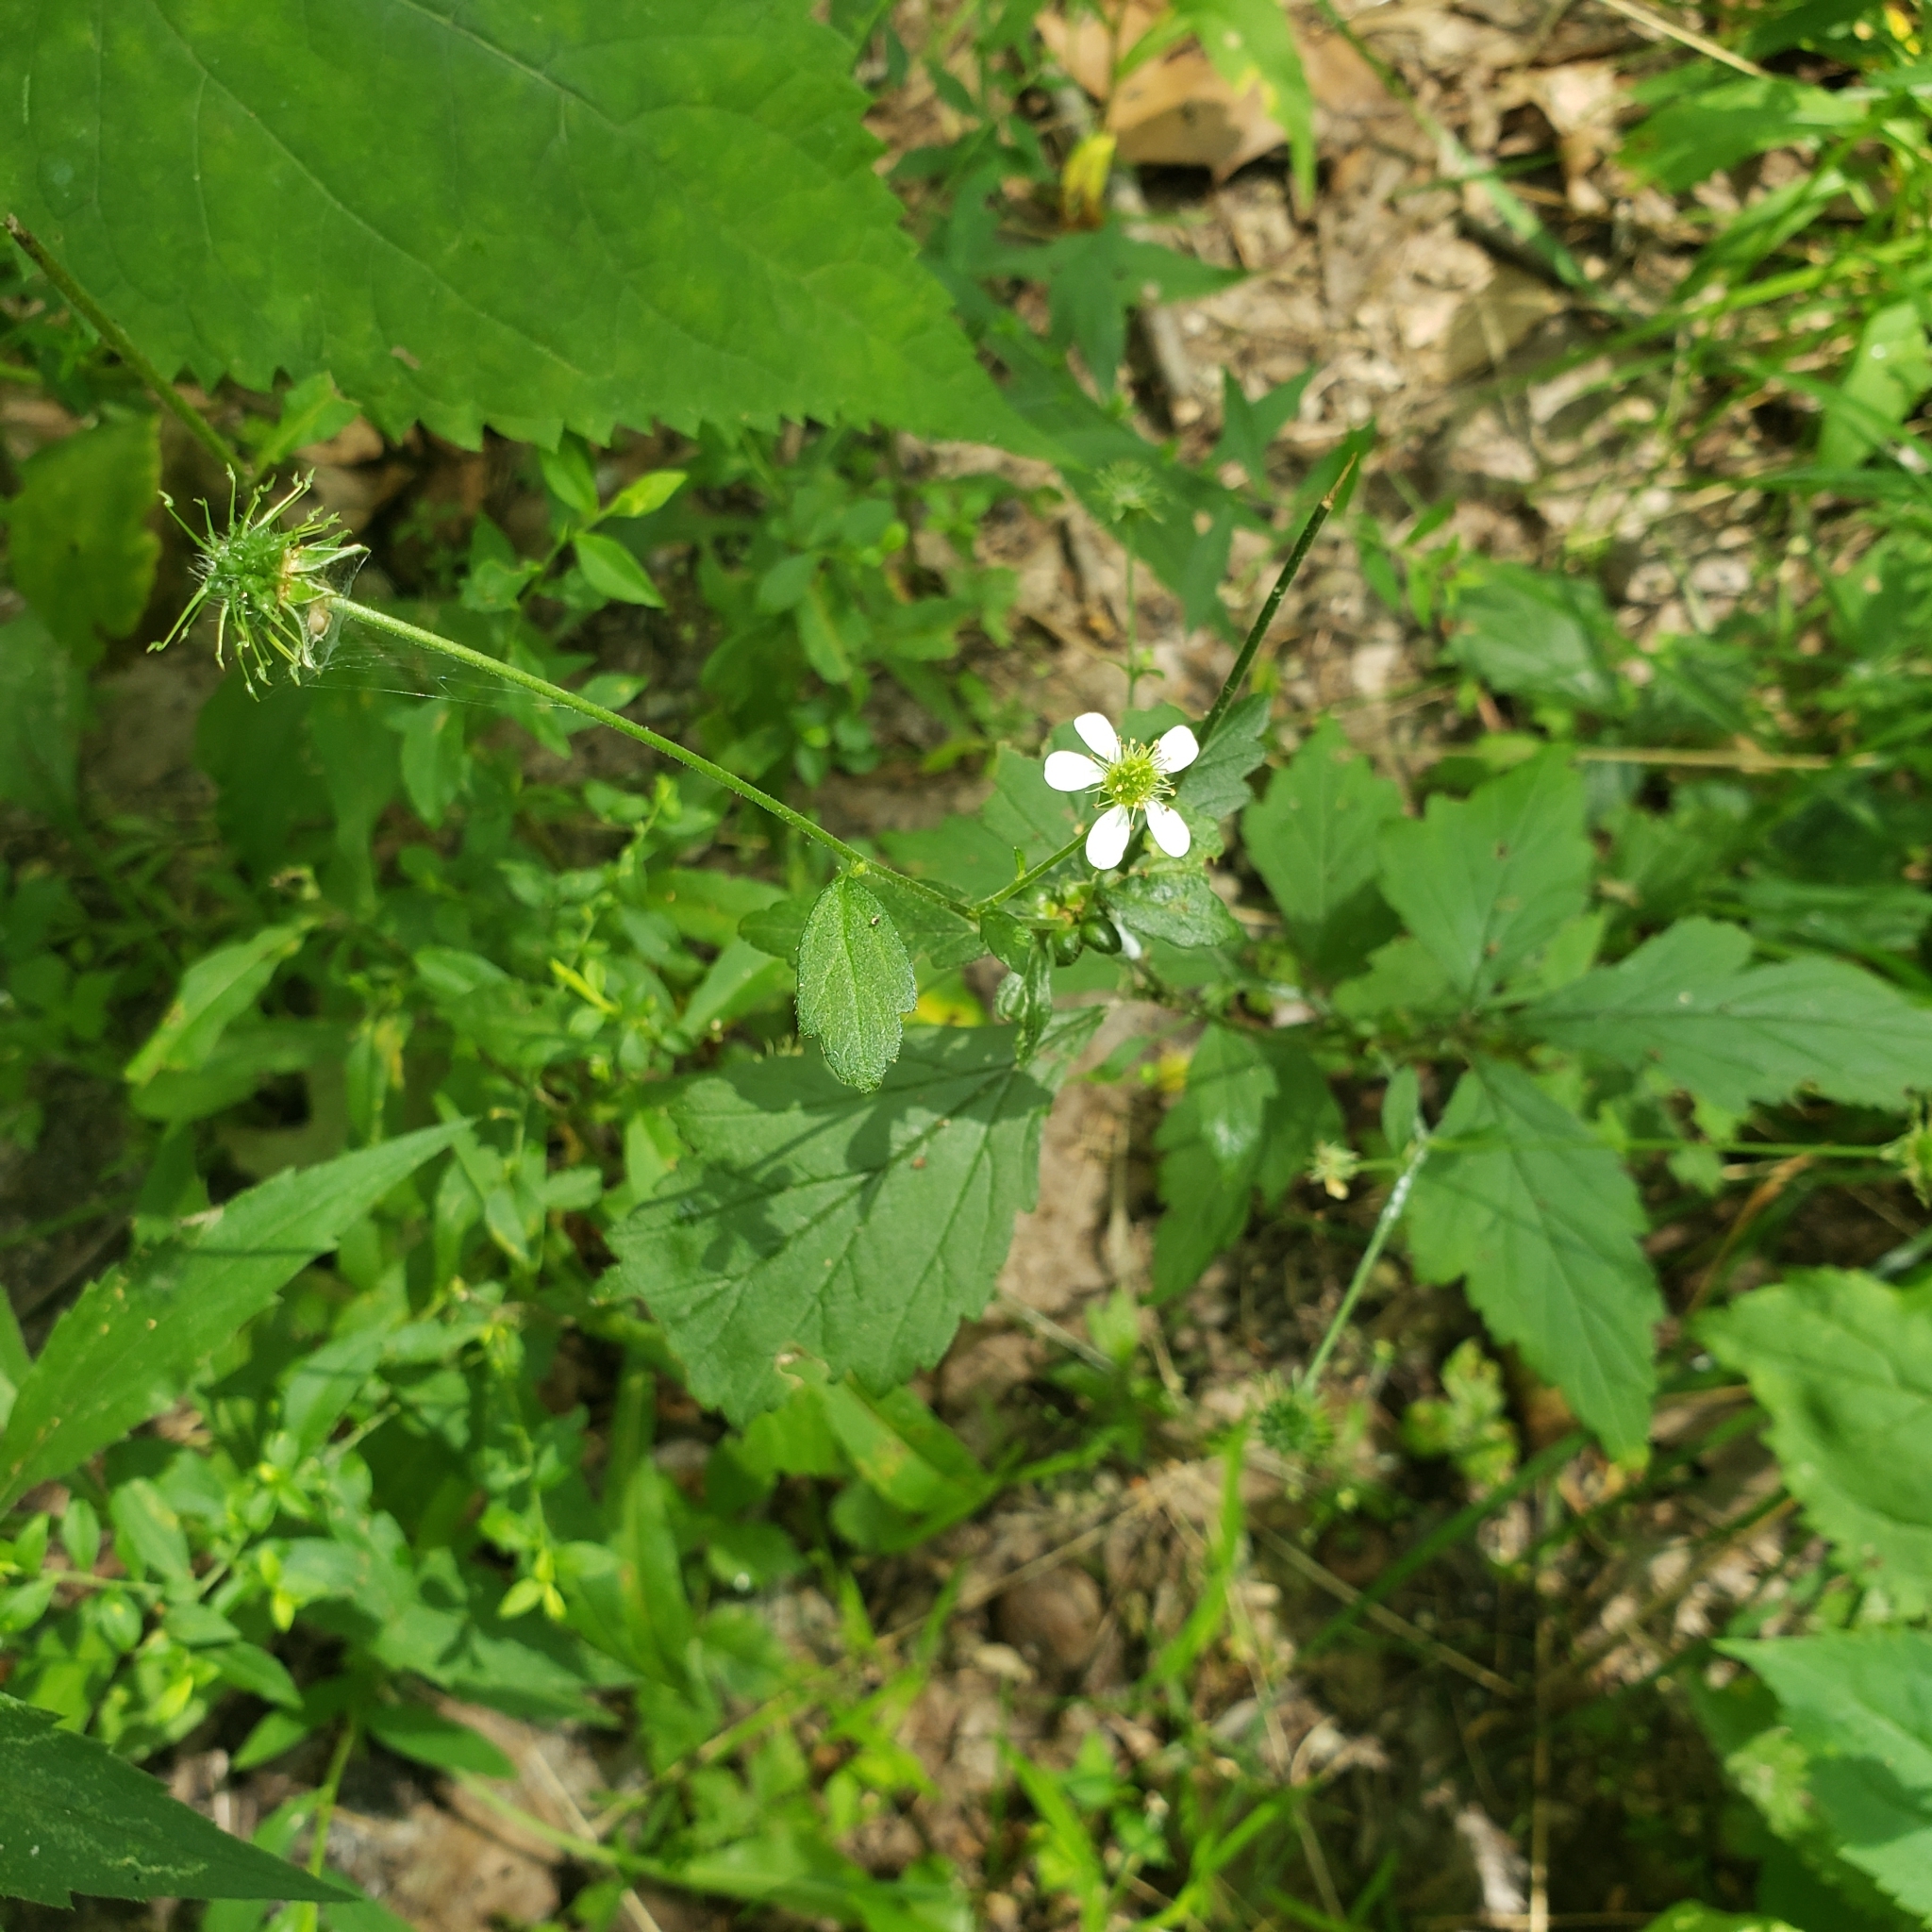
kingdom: Plantae
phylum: Tracheophyta
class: Magnoliopsida
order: Rosales
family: Rosaceae
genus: Geum
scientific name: Geum canadense
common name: White avens
